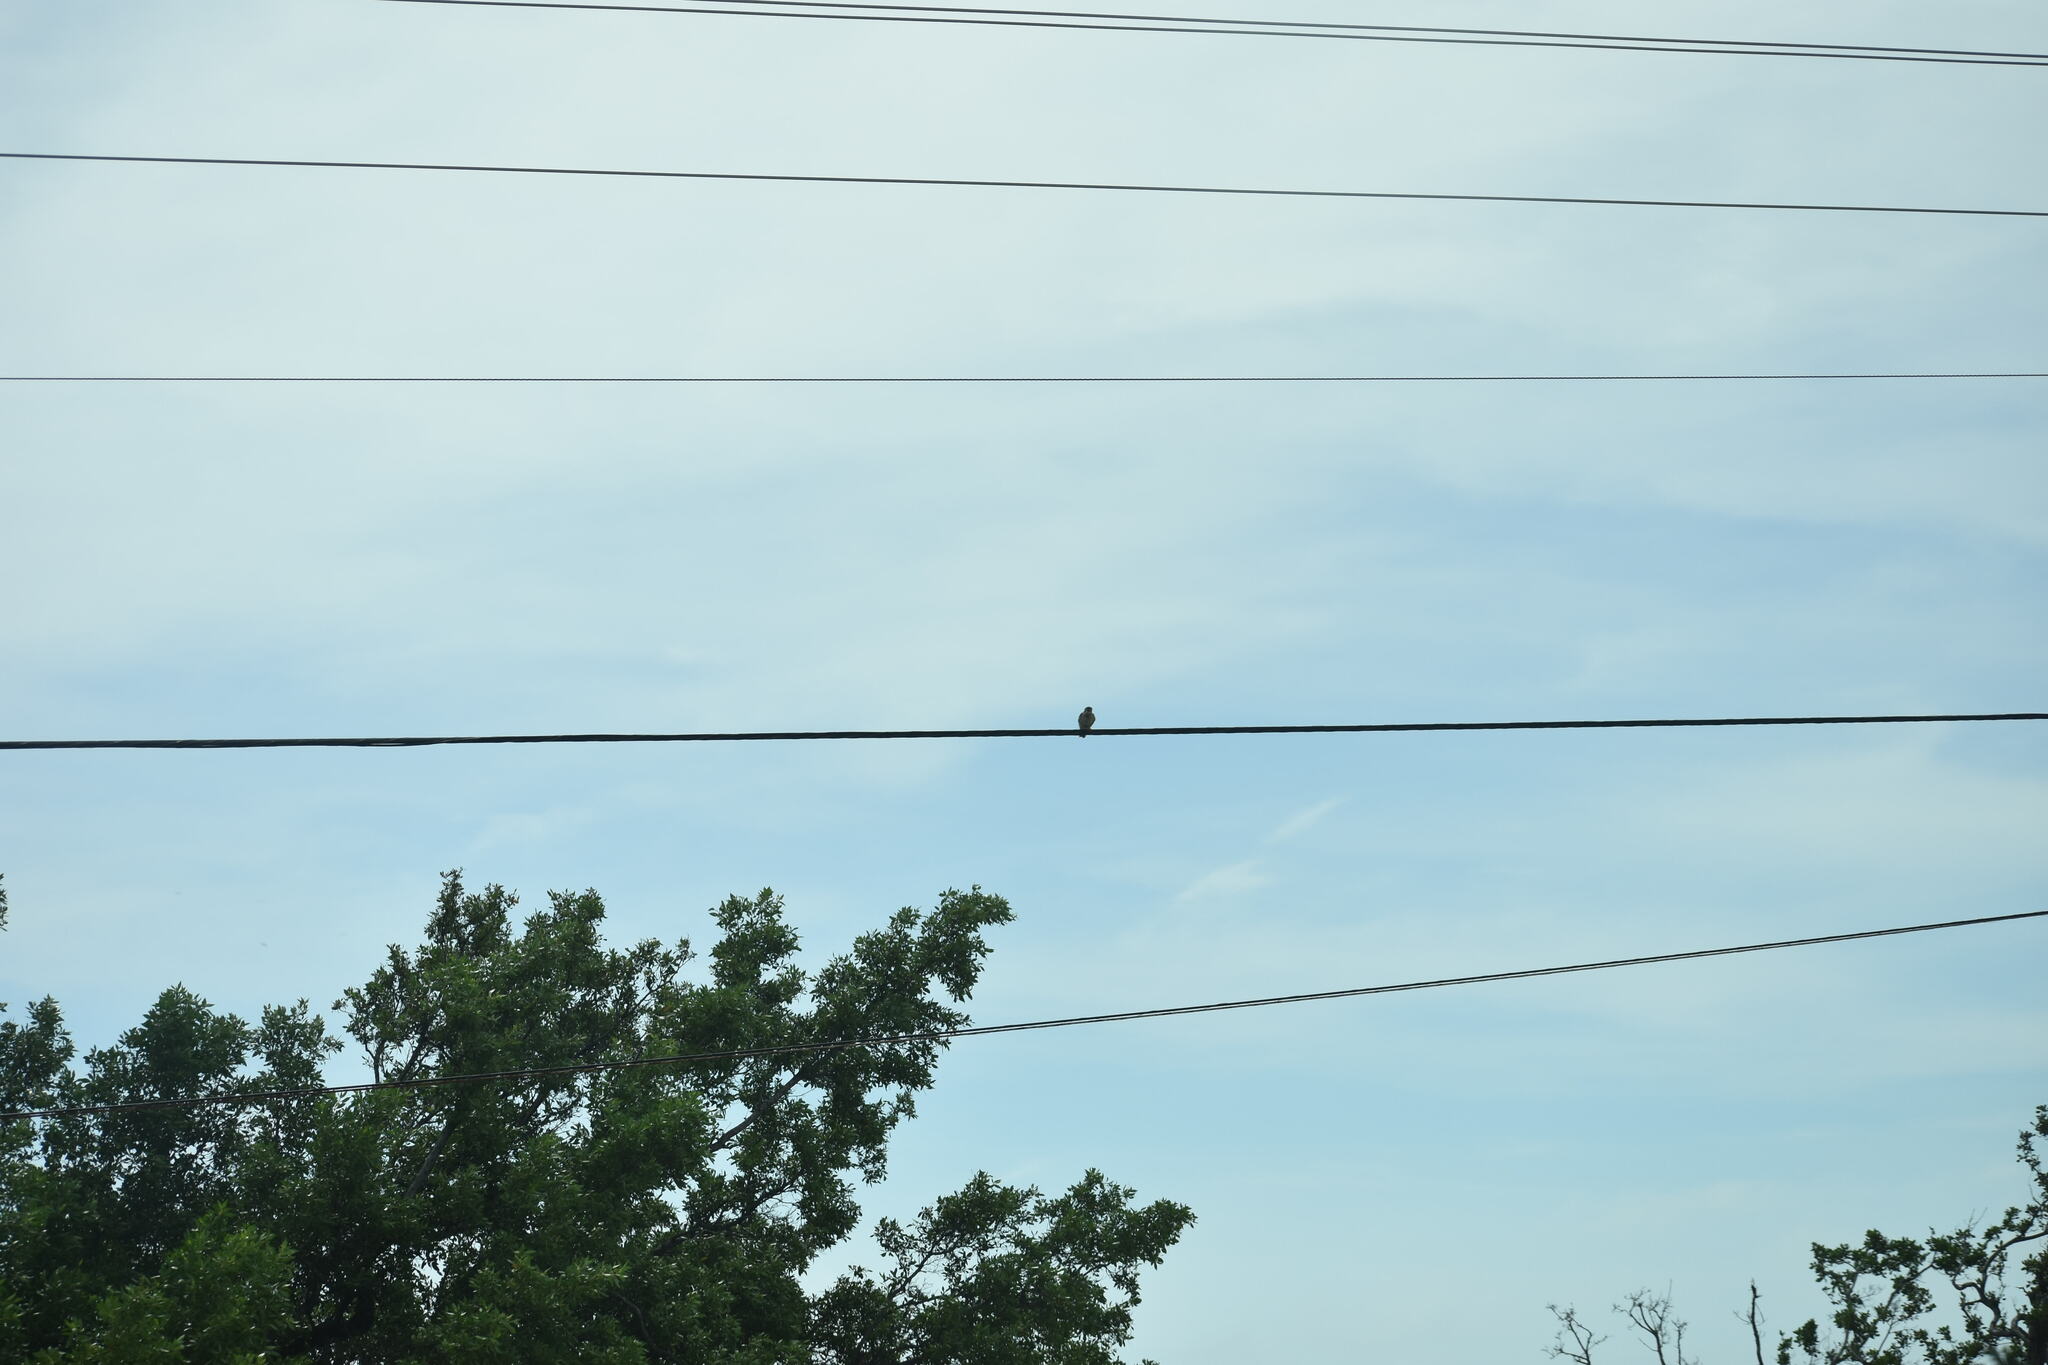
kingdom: Animalia
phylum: Chordata
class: Aves
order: Falconiformes
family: Falconidae
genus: Falco
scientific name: Falco sparverius
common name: American kestrel
